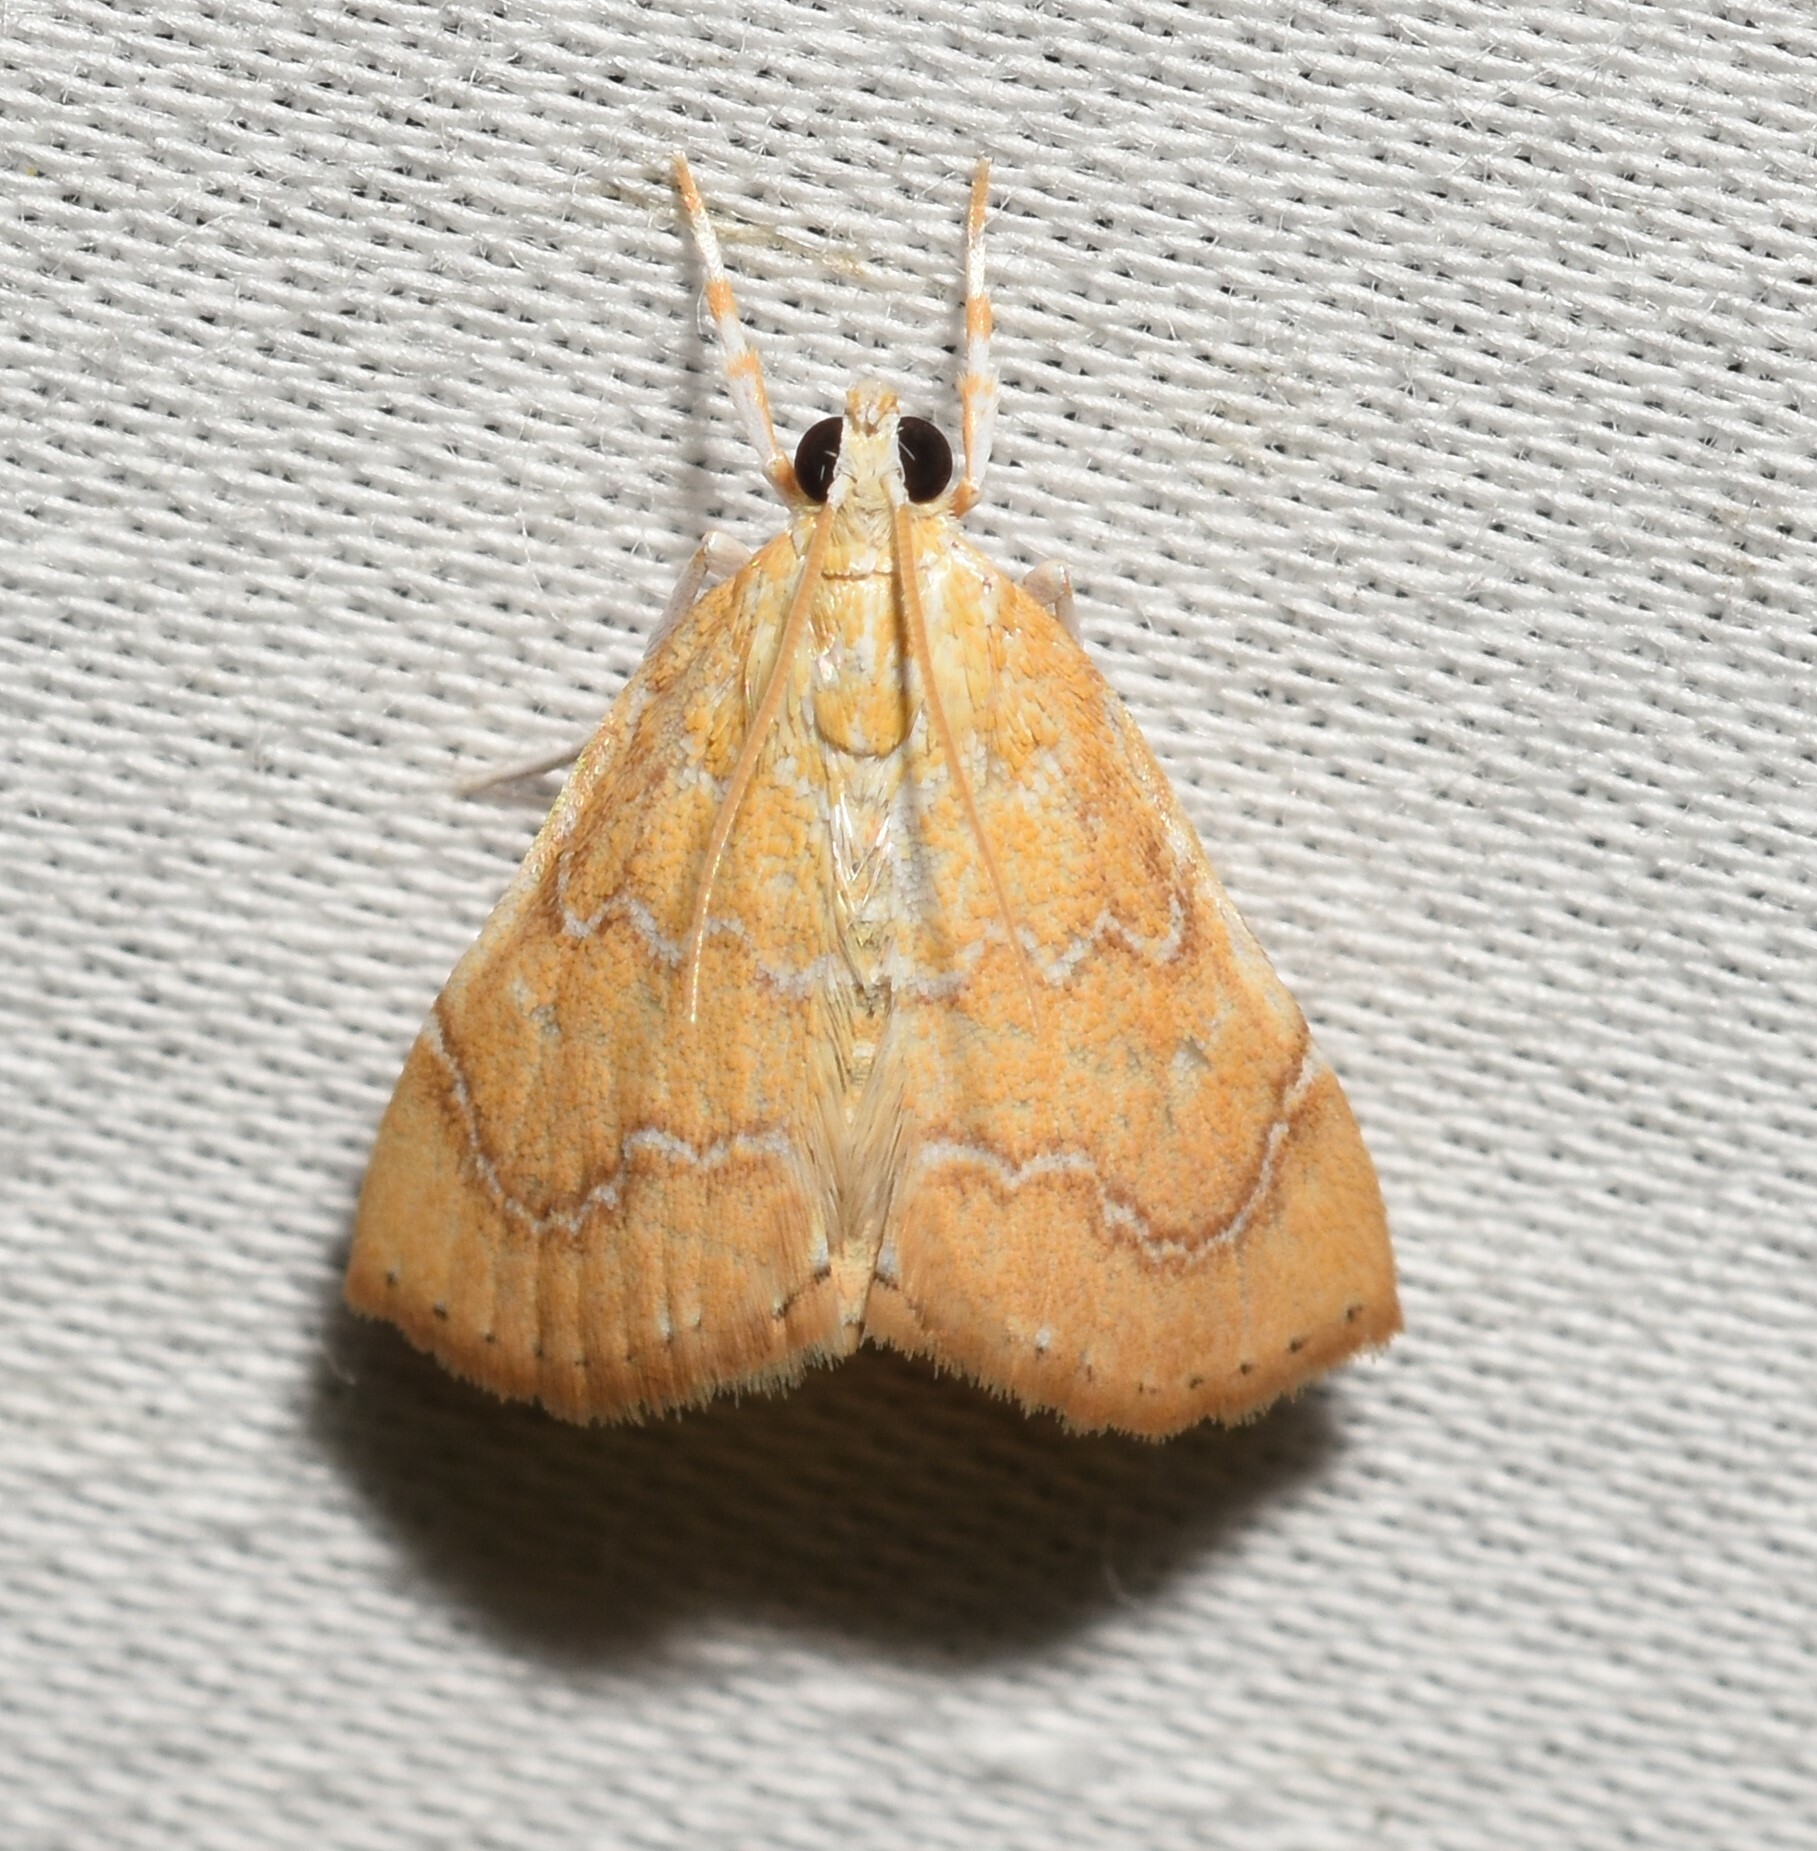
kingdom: Animalia
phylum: Arthropoda
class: Insecta
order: Lepidoptera
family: Crambidae
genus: Glaphyria
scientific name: Glaphyria sesquistrialis
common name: White-roped glaphyria
